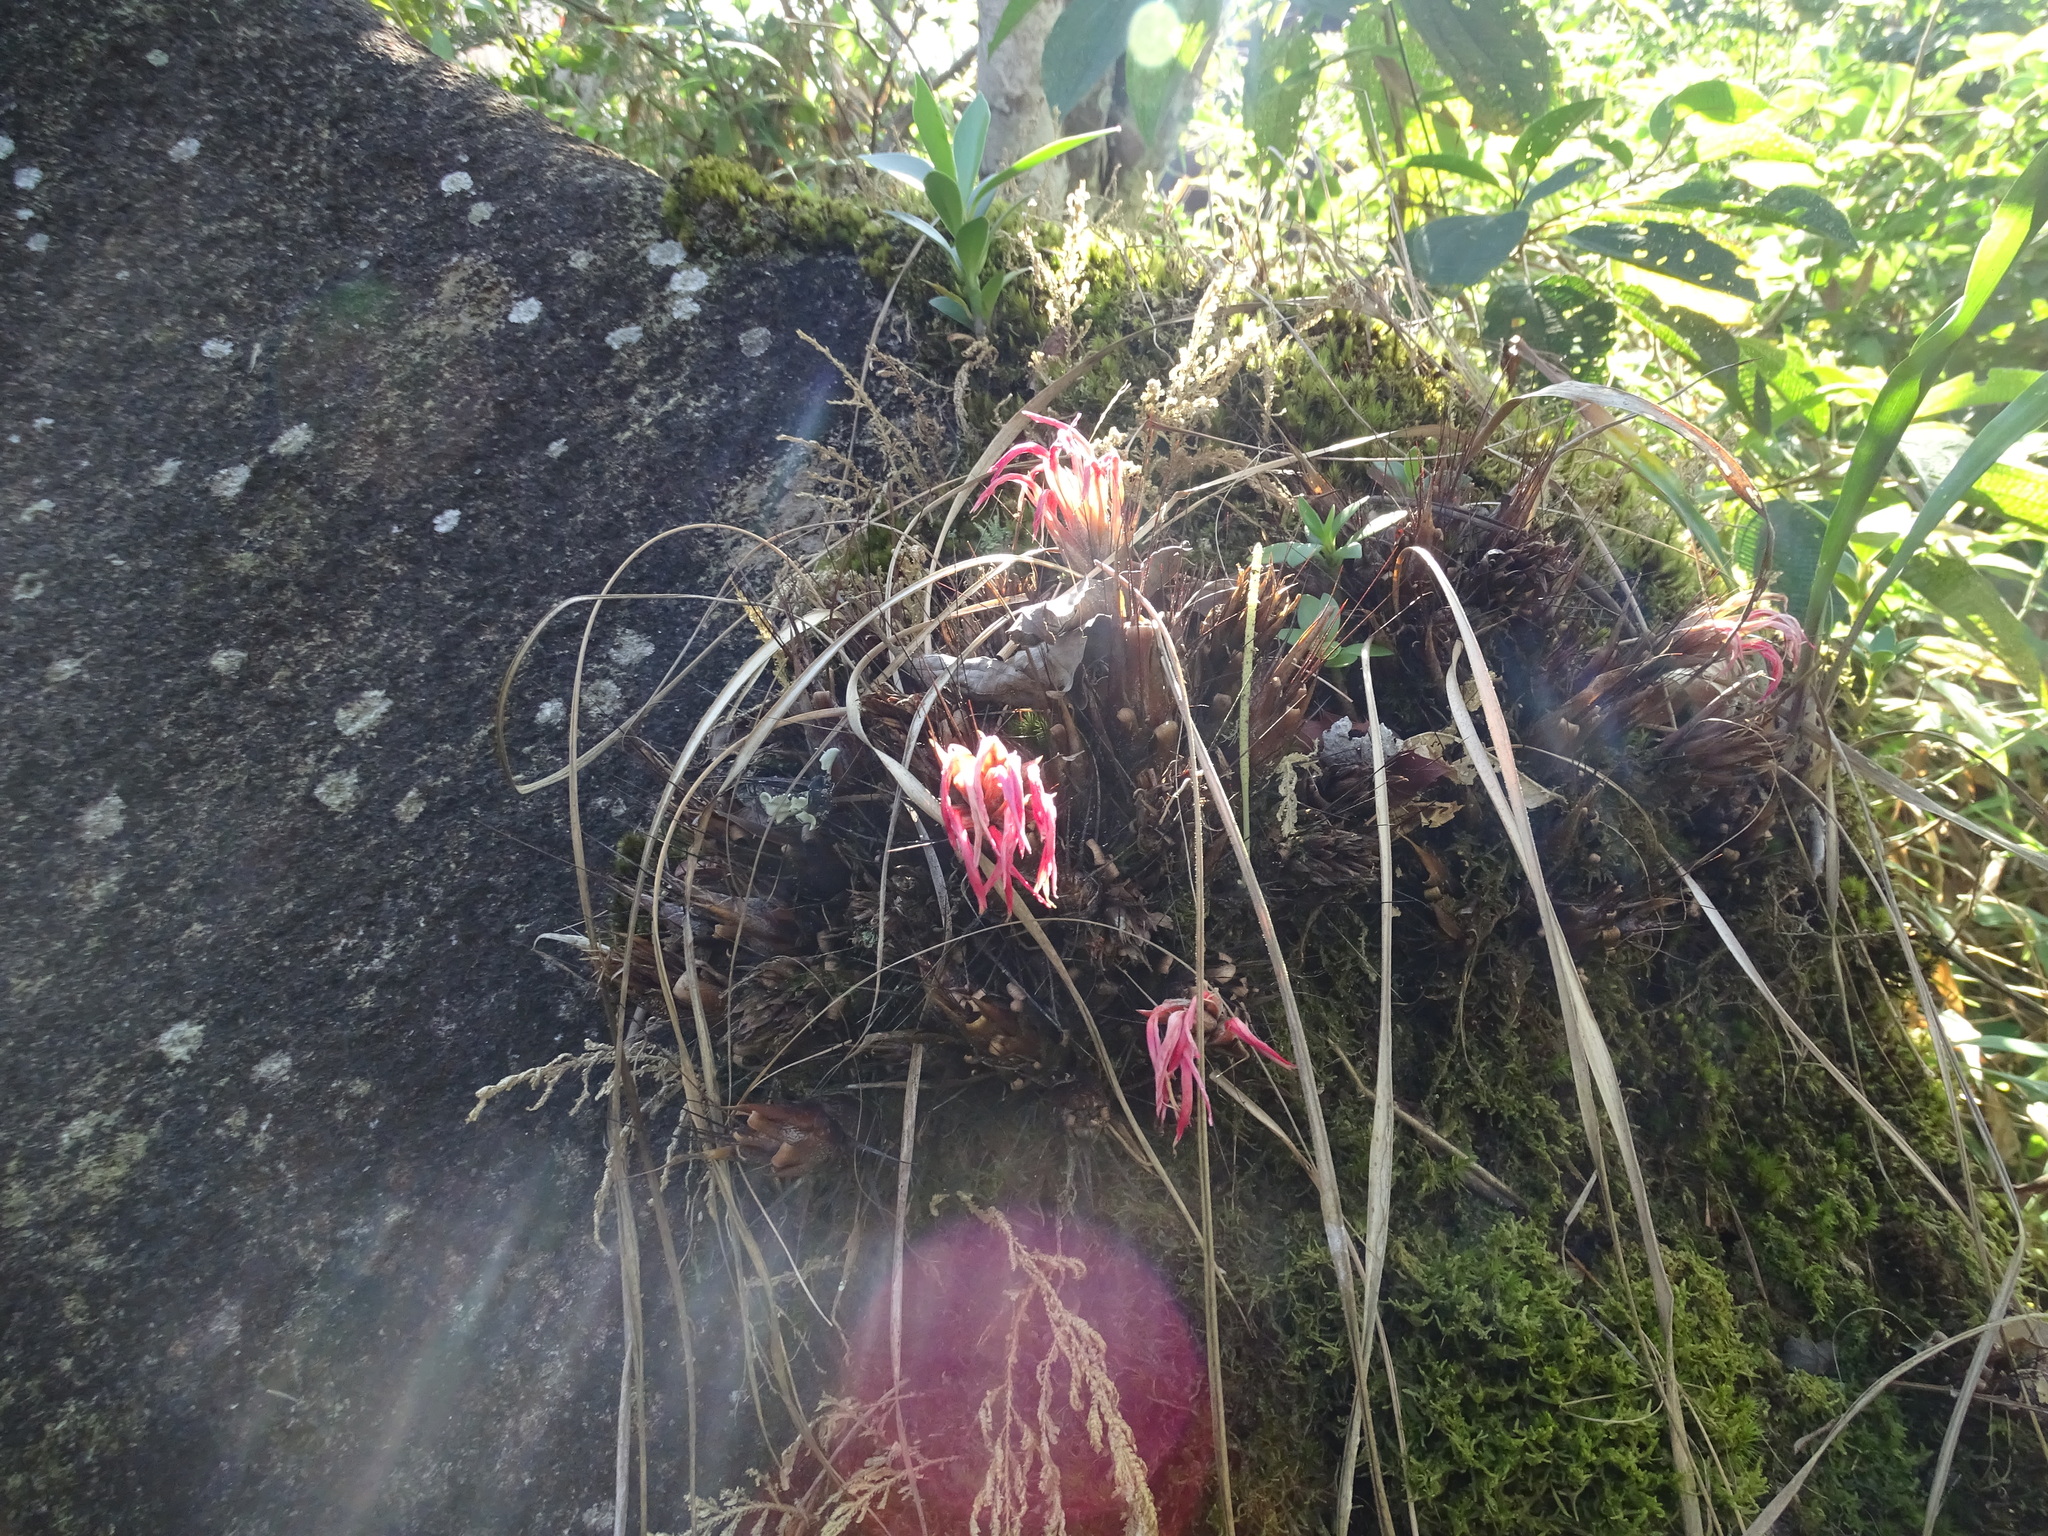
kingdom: Plantae
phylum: Tracheophyta
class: Liliopsida
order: Poales
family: Bromeliaceae
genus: Pitcairnia
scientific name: Pitcairnia heterophylla
